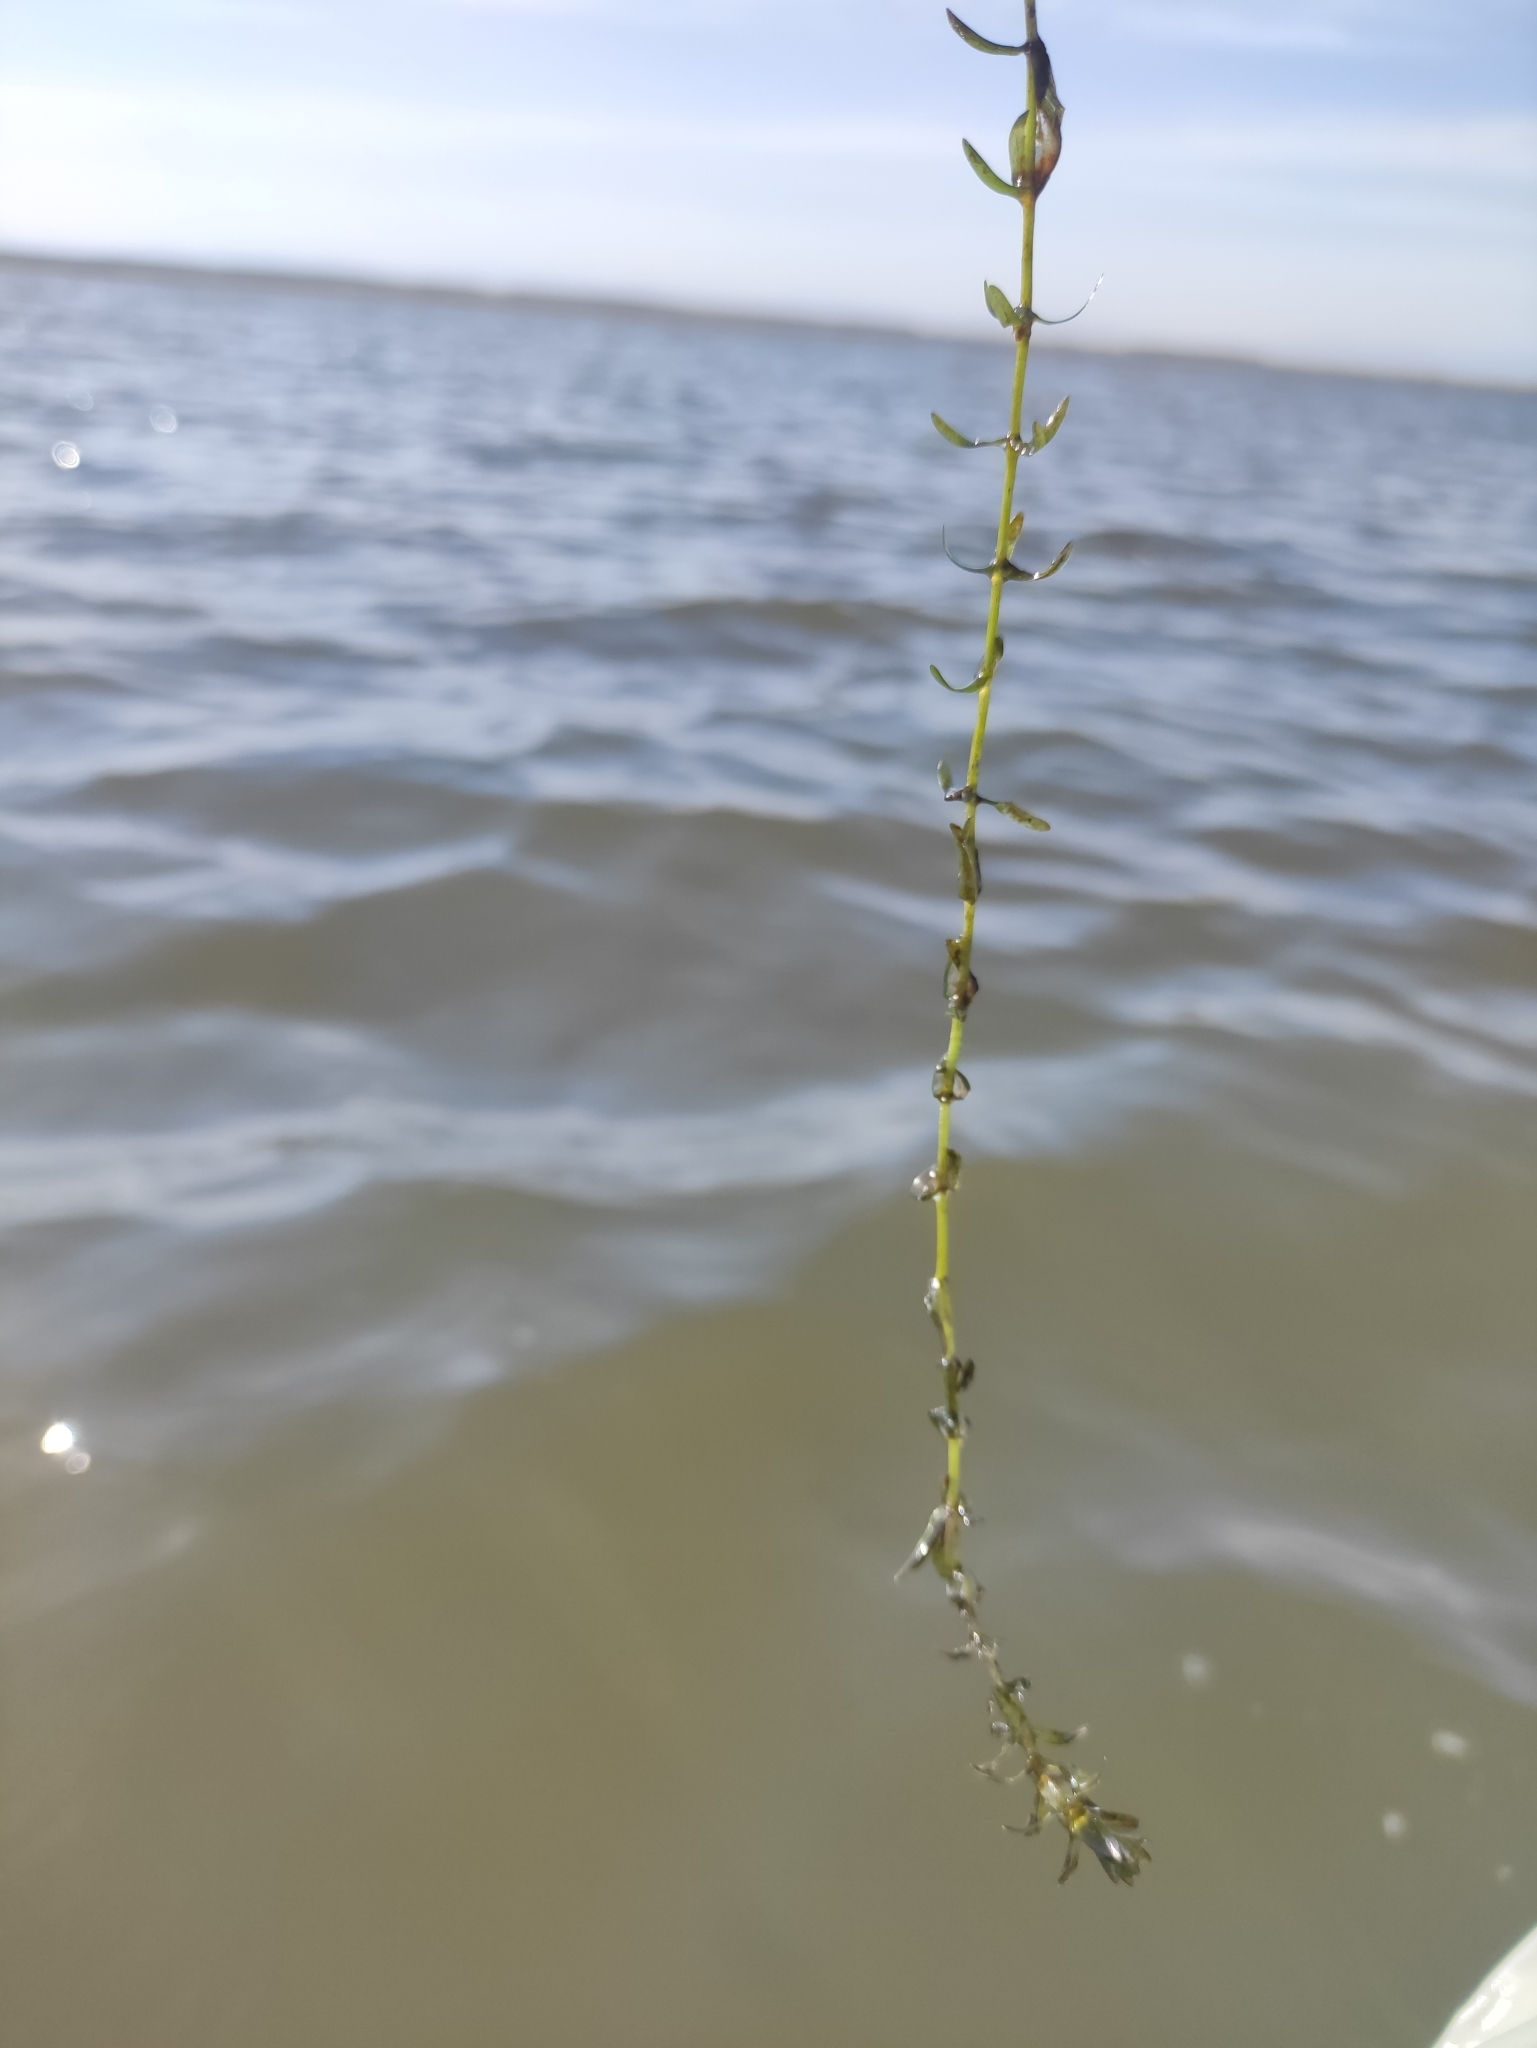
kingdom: Plantae
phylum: Tracheophyta
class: Liliopsida
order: Alismatales
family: Hydrocharitaceae
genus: Elodea
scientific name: Elodea canadensis
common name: Canadian waterweed
